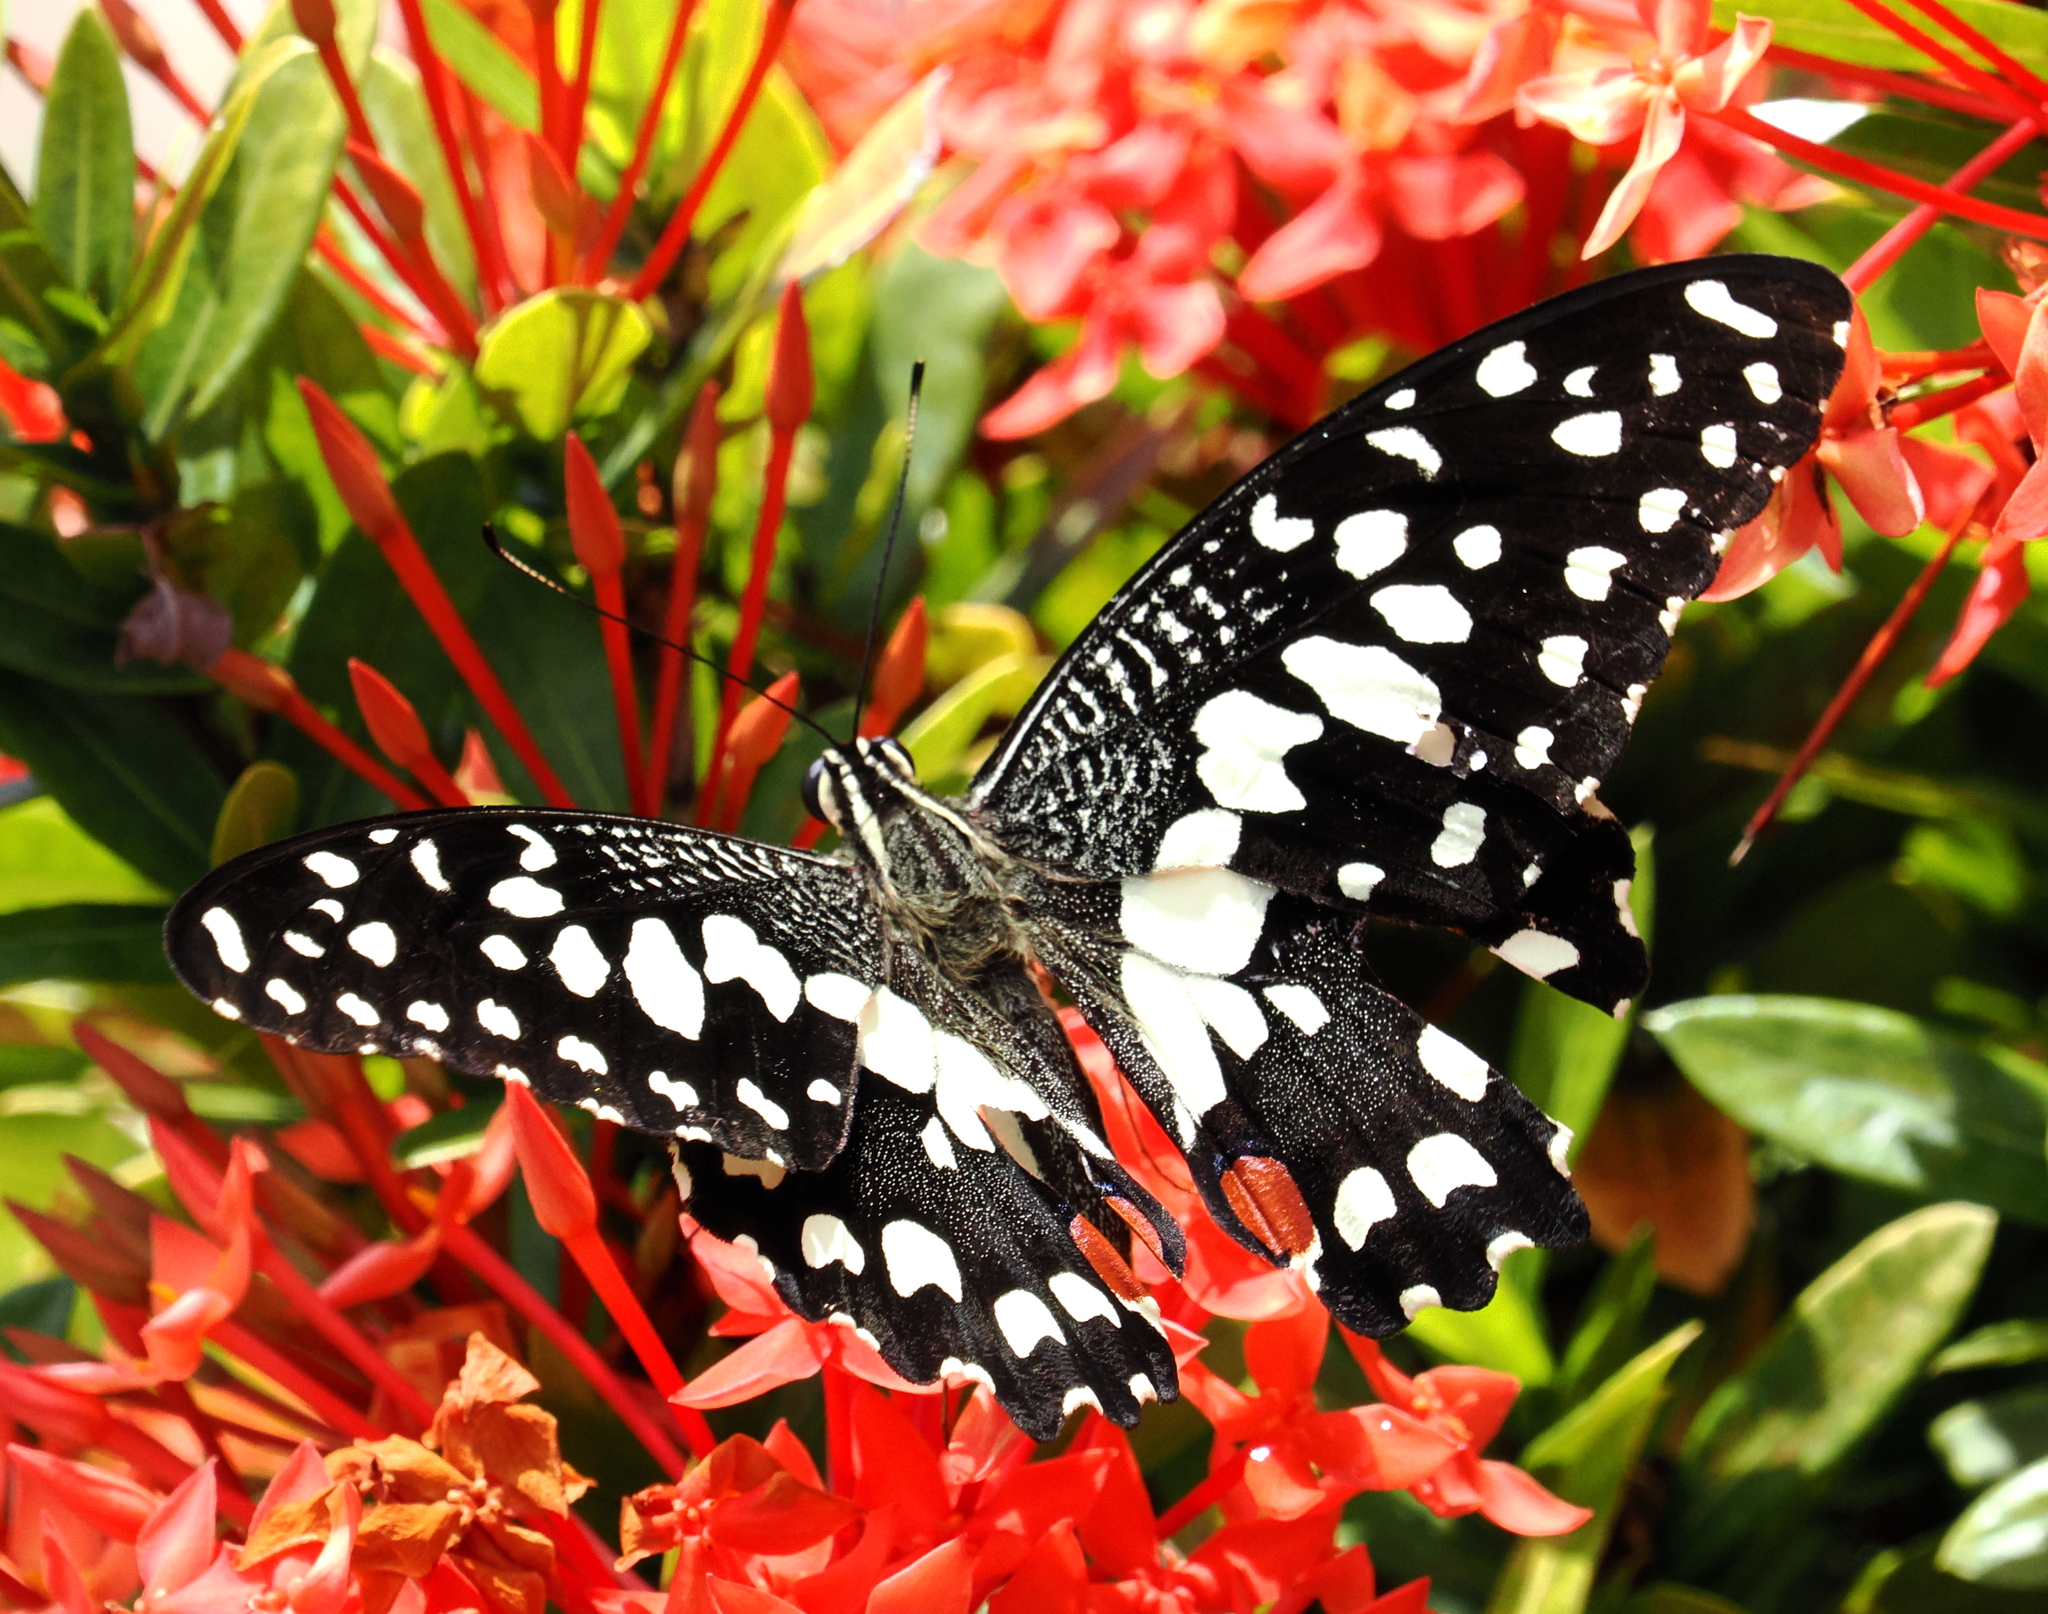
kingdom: Animalia
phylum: Arthropoda
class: Insecta
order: Lepidoptera
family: Papilionidae
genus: Papilio
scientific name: Papilio demoleus
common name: Lime butterfly
